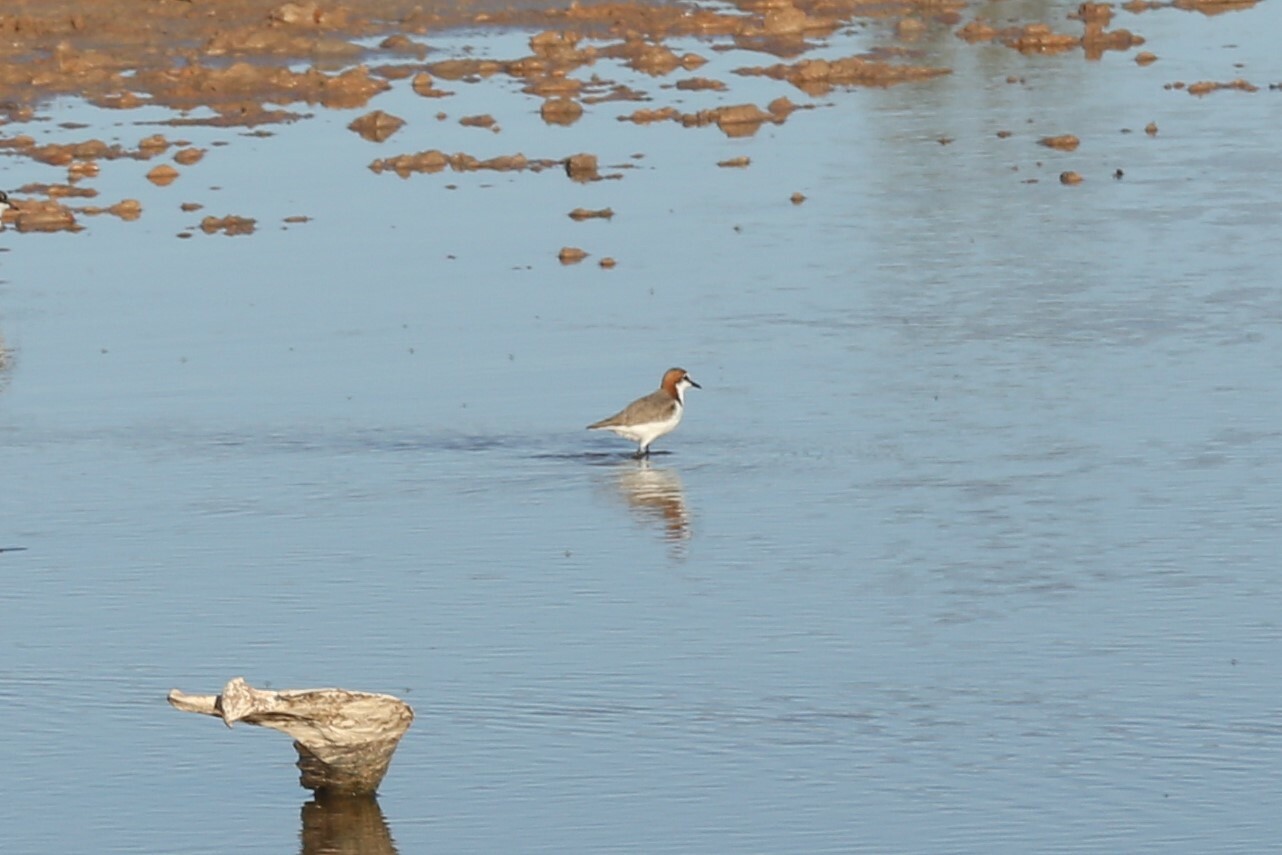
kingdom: Animalia
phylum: Chordata
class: Aves
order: Charadriiformes
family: Charadriidae
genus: Anarhynchus
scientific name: Anarhynchus
